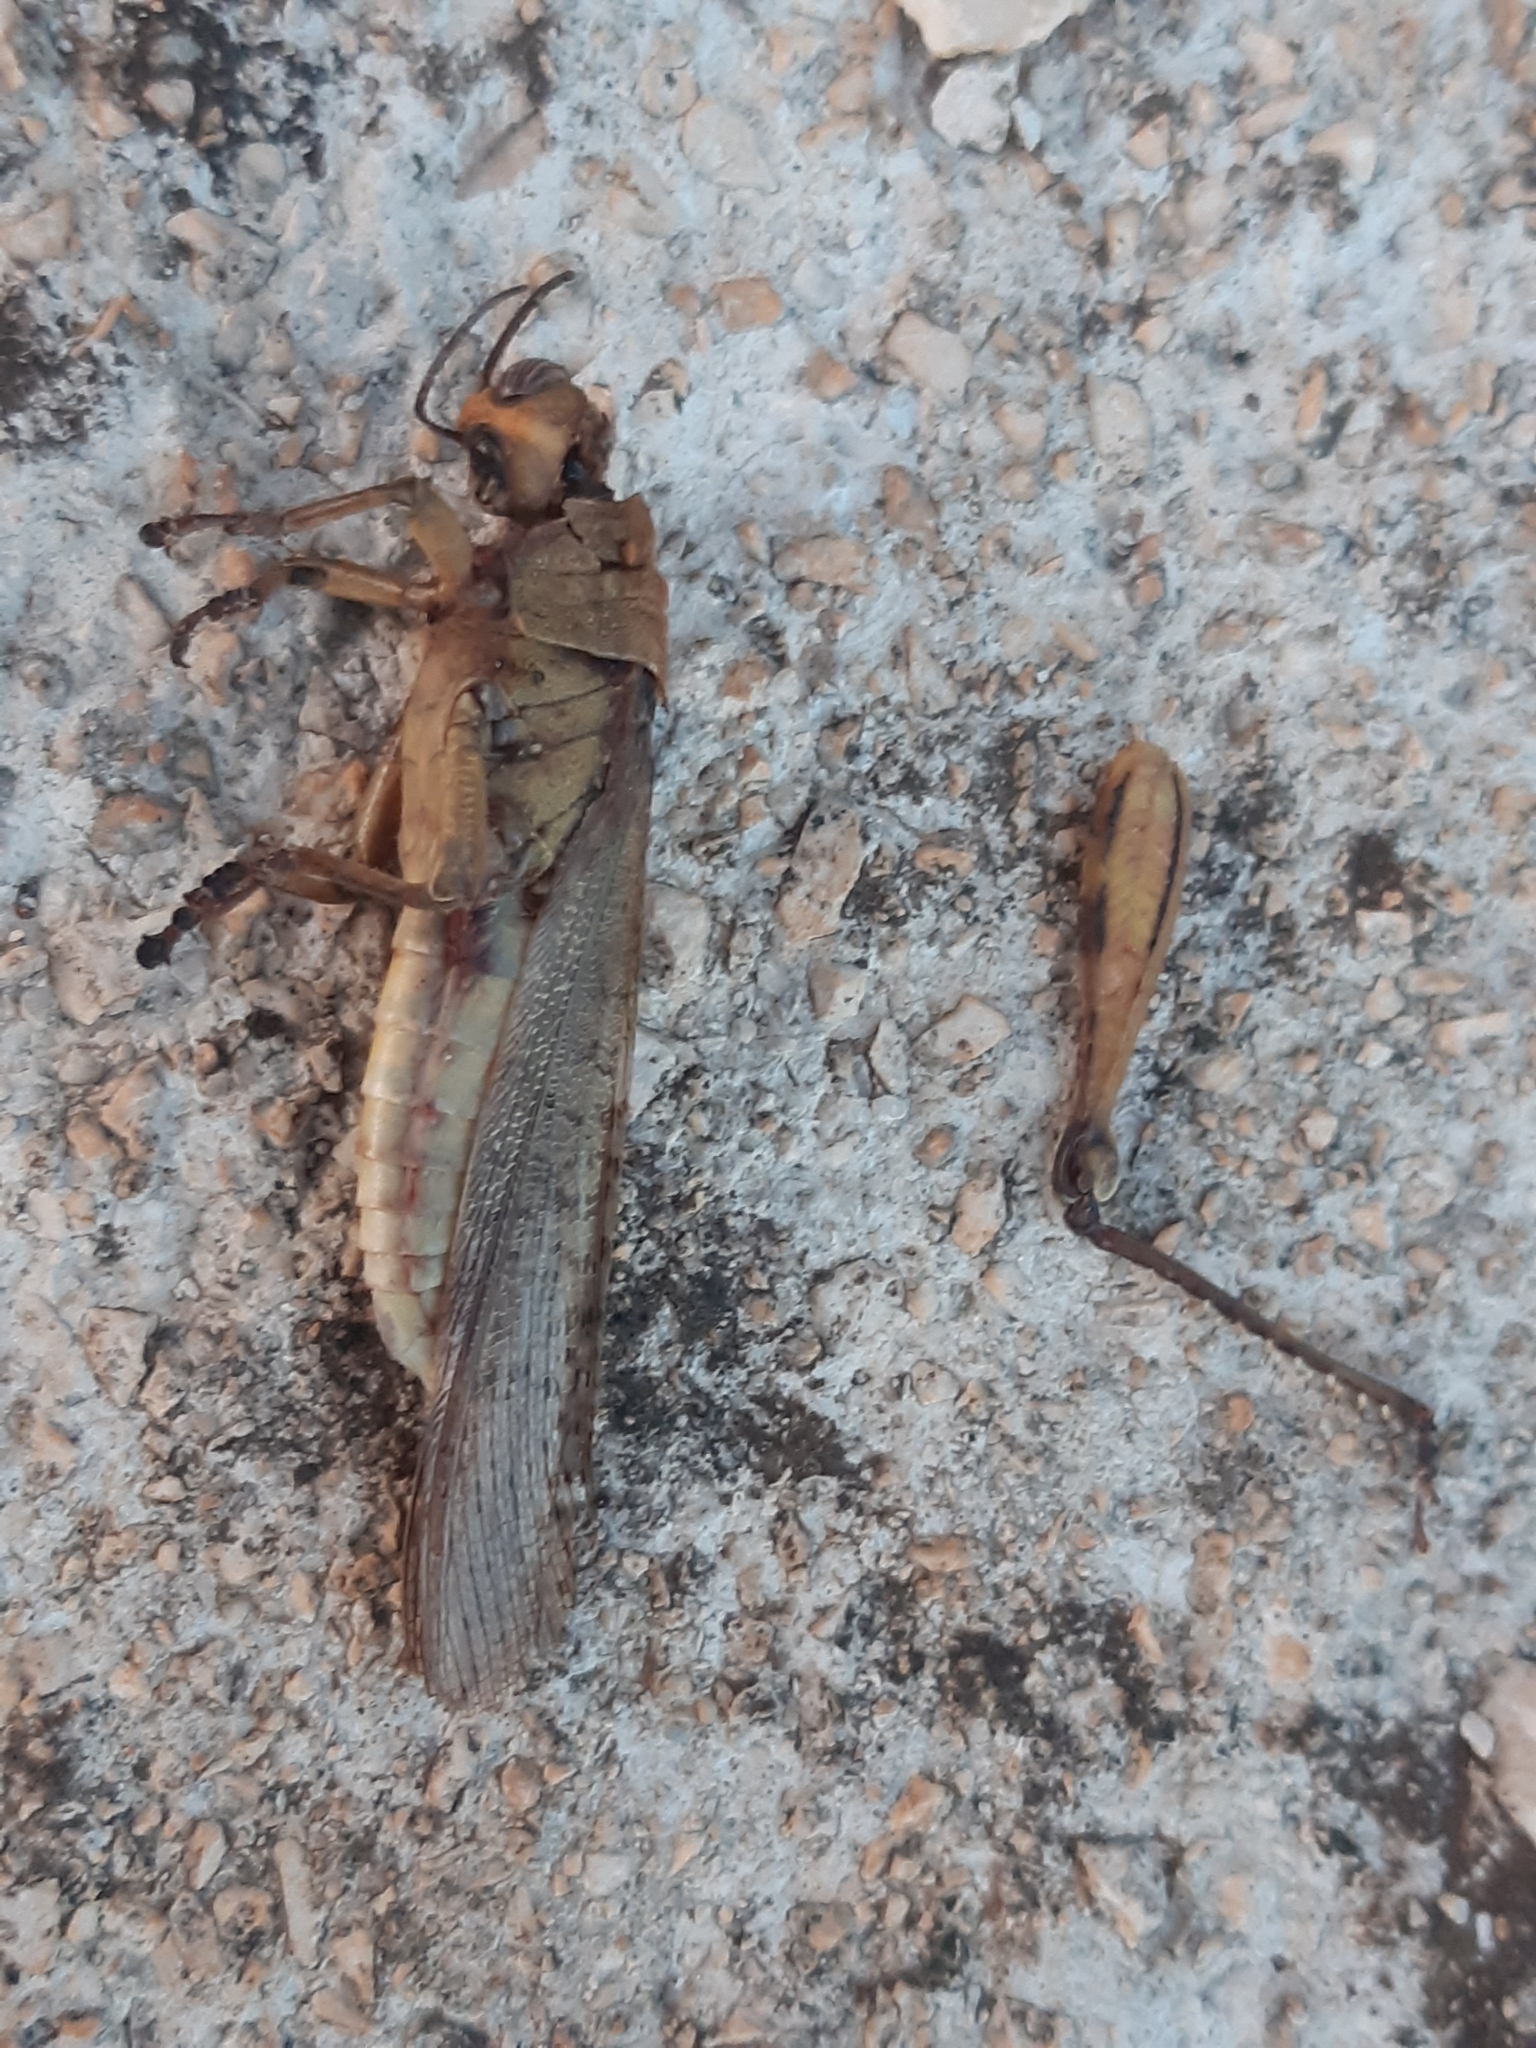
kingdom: Animalia
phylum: Arthropoda
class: Insecta
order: Orthoptera
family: Acrididae
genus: Anacridium
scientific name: Anacridium aegyptium
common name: Egyptian grasshopper
